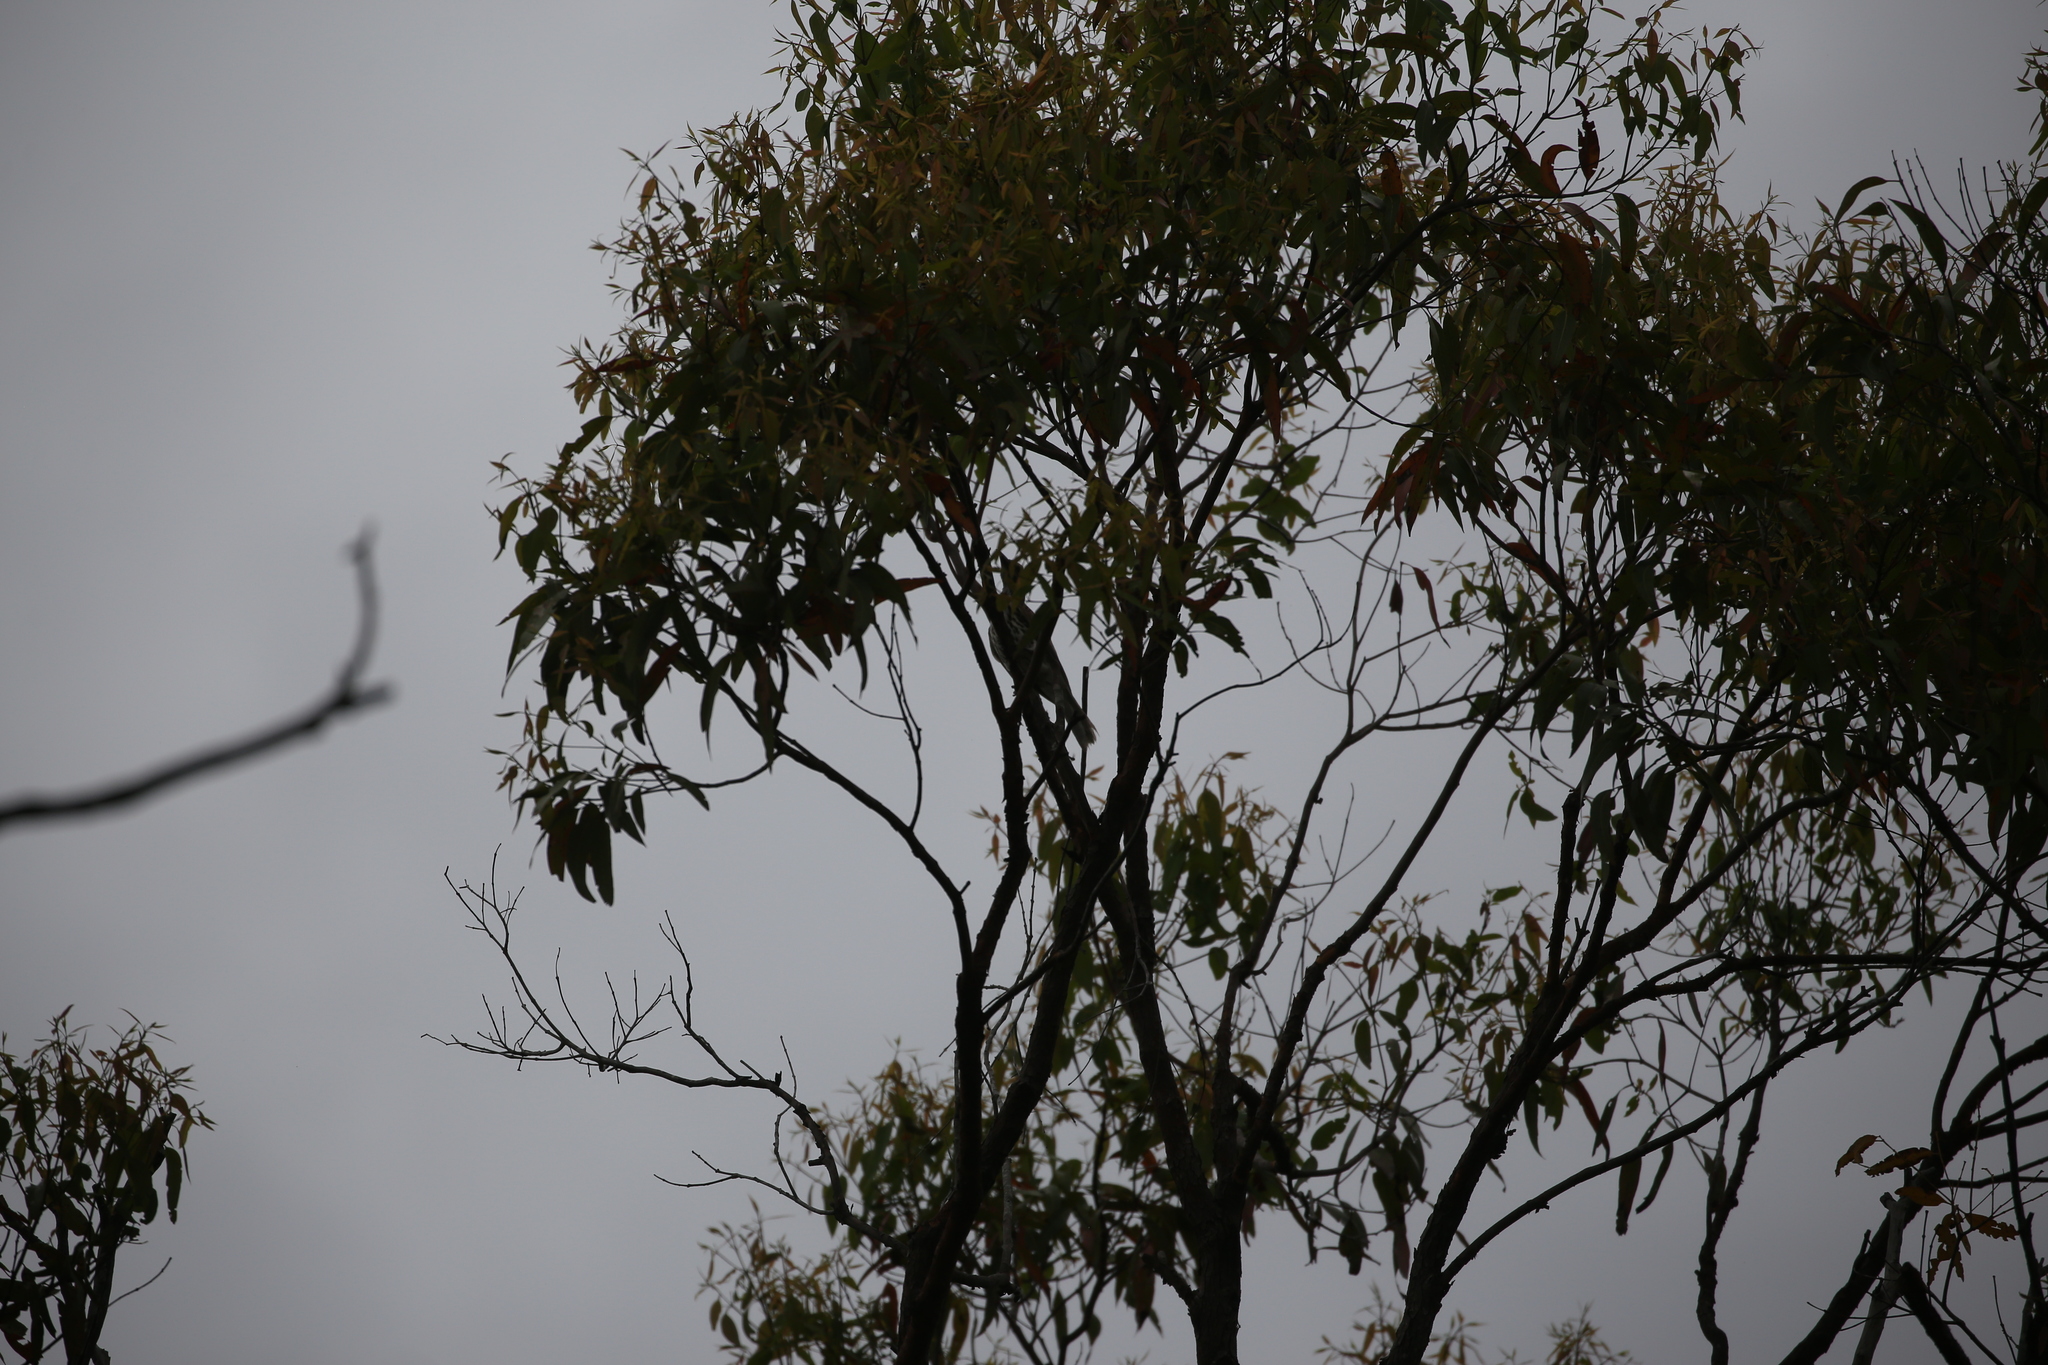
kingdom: Animalia
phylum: Chordata
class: Aves
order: Passeriformes
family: Oriolidae
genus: Oriolus
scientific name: Oriolus sagittatus
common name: Olive-backed oriole
